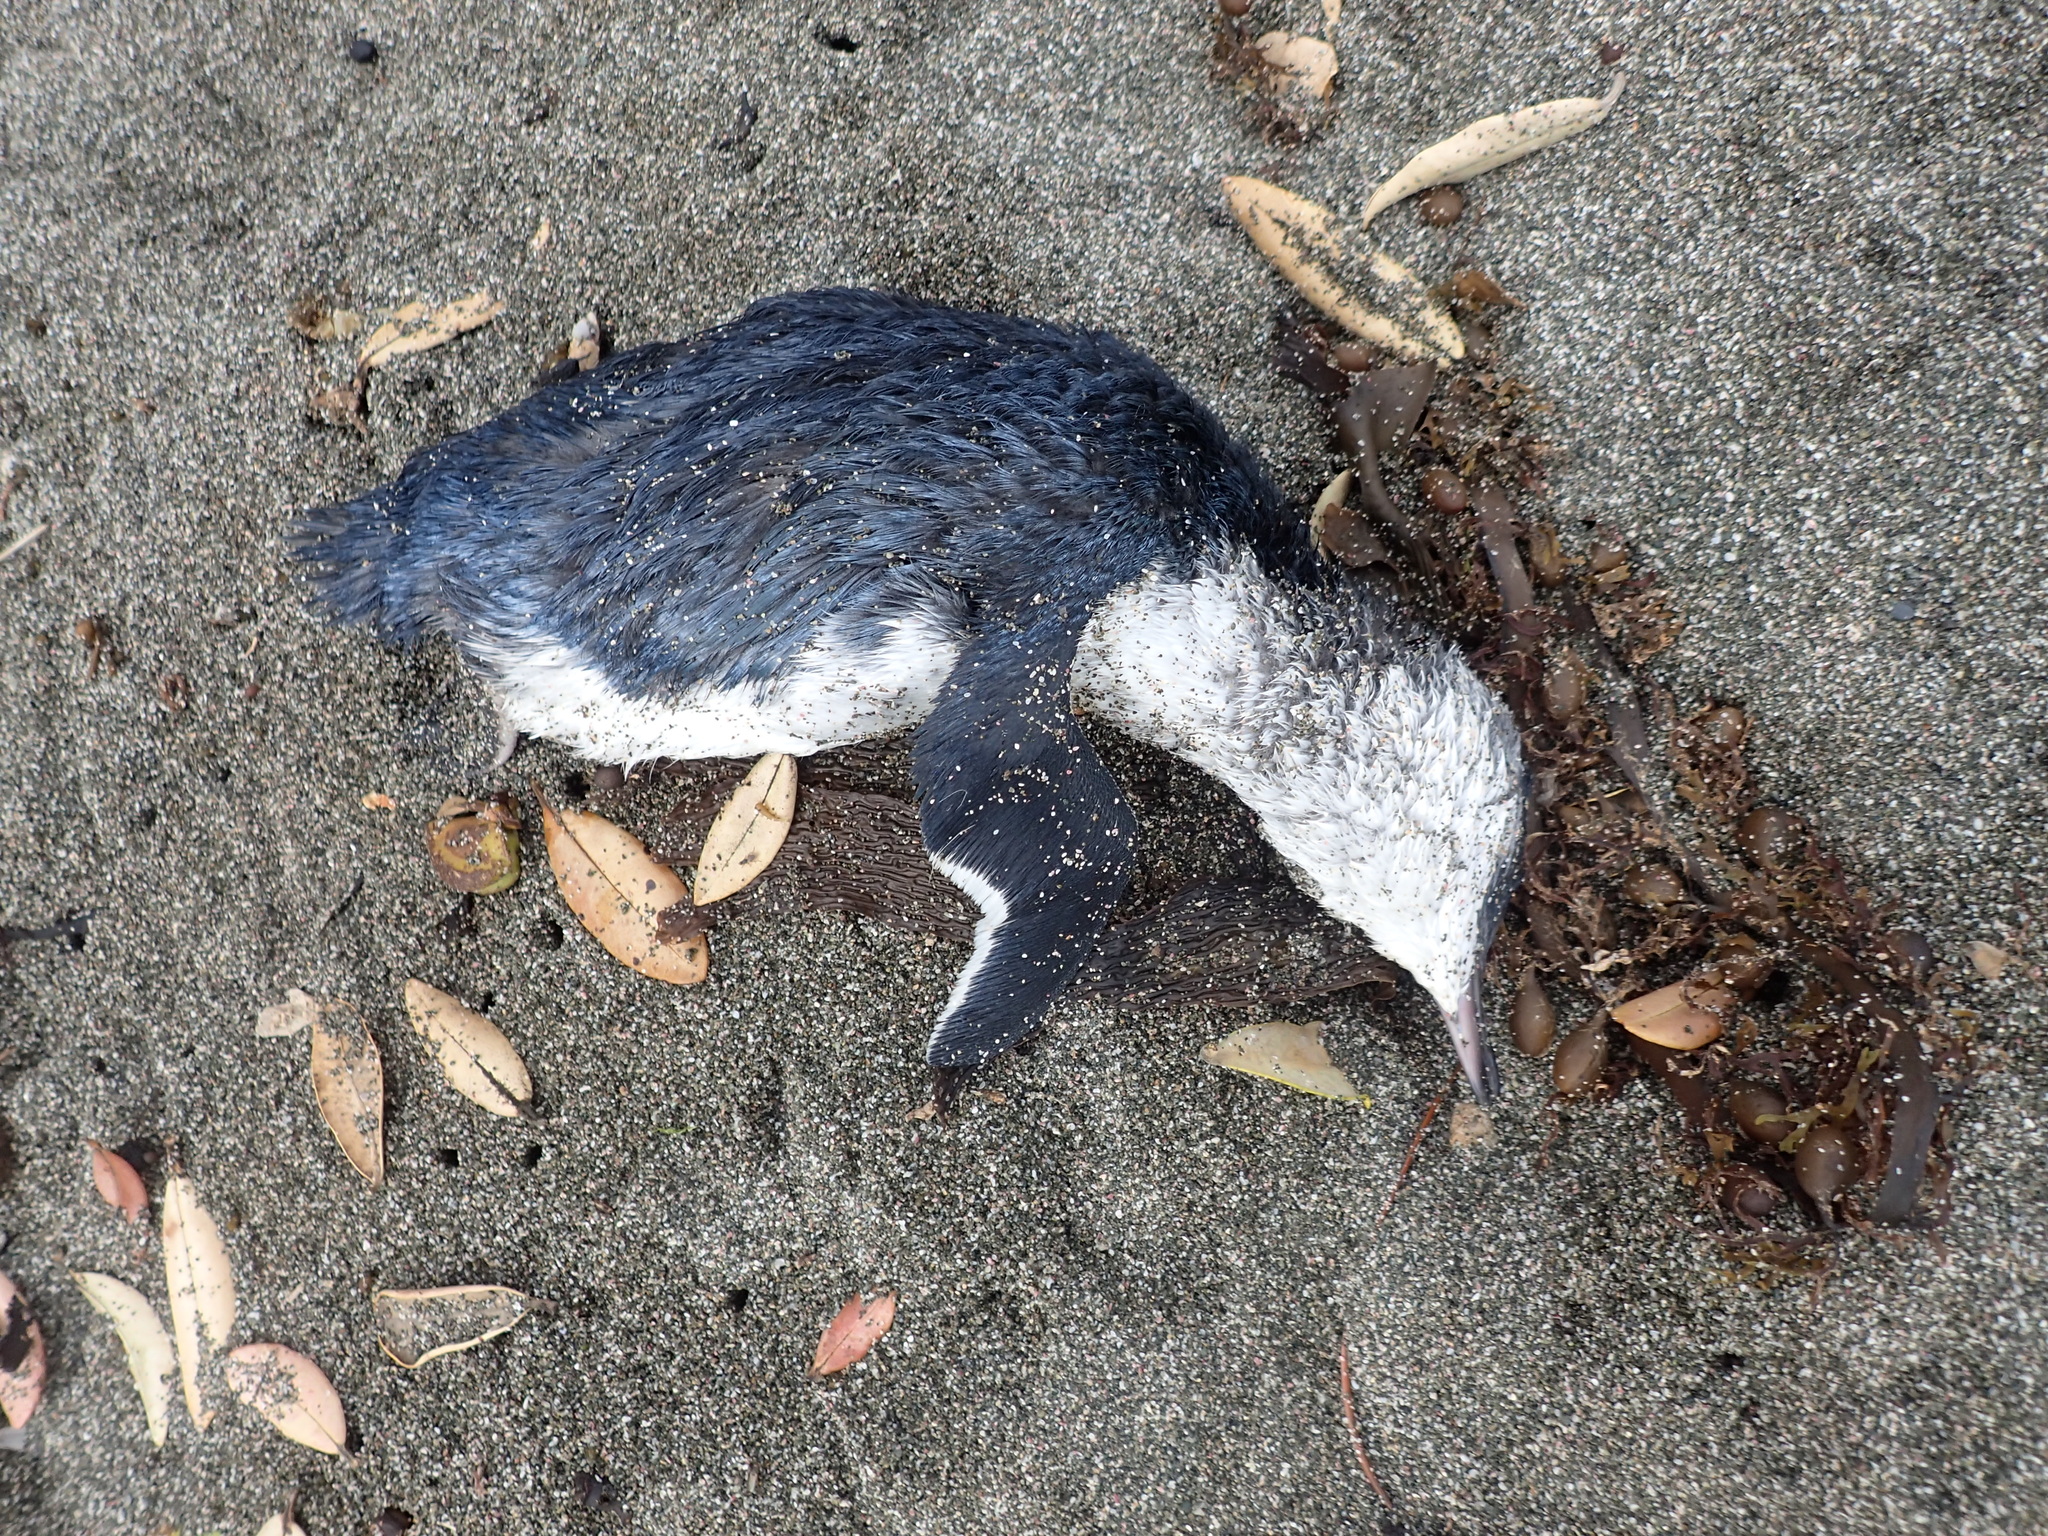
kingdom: Animalia
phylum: Chordata
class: Aves
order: Sphenisciformes
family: Spheniscidae
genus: Eudyptula
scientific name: Eudyptula minor
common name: Little penguin
